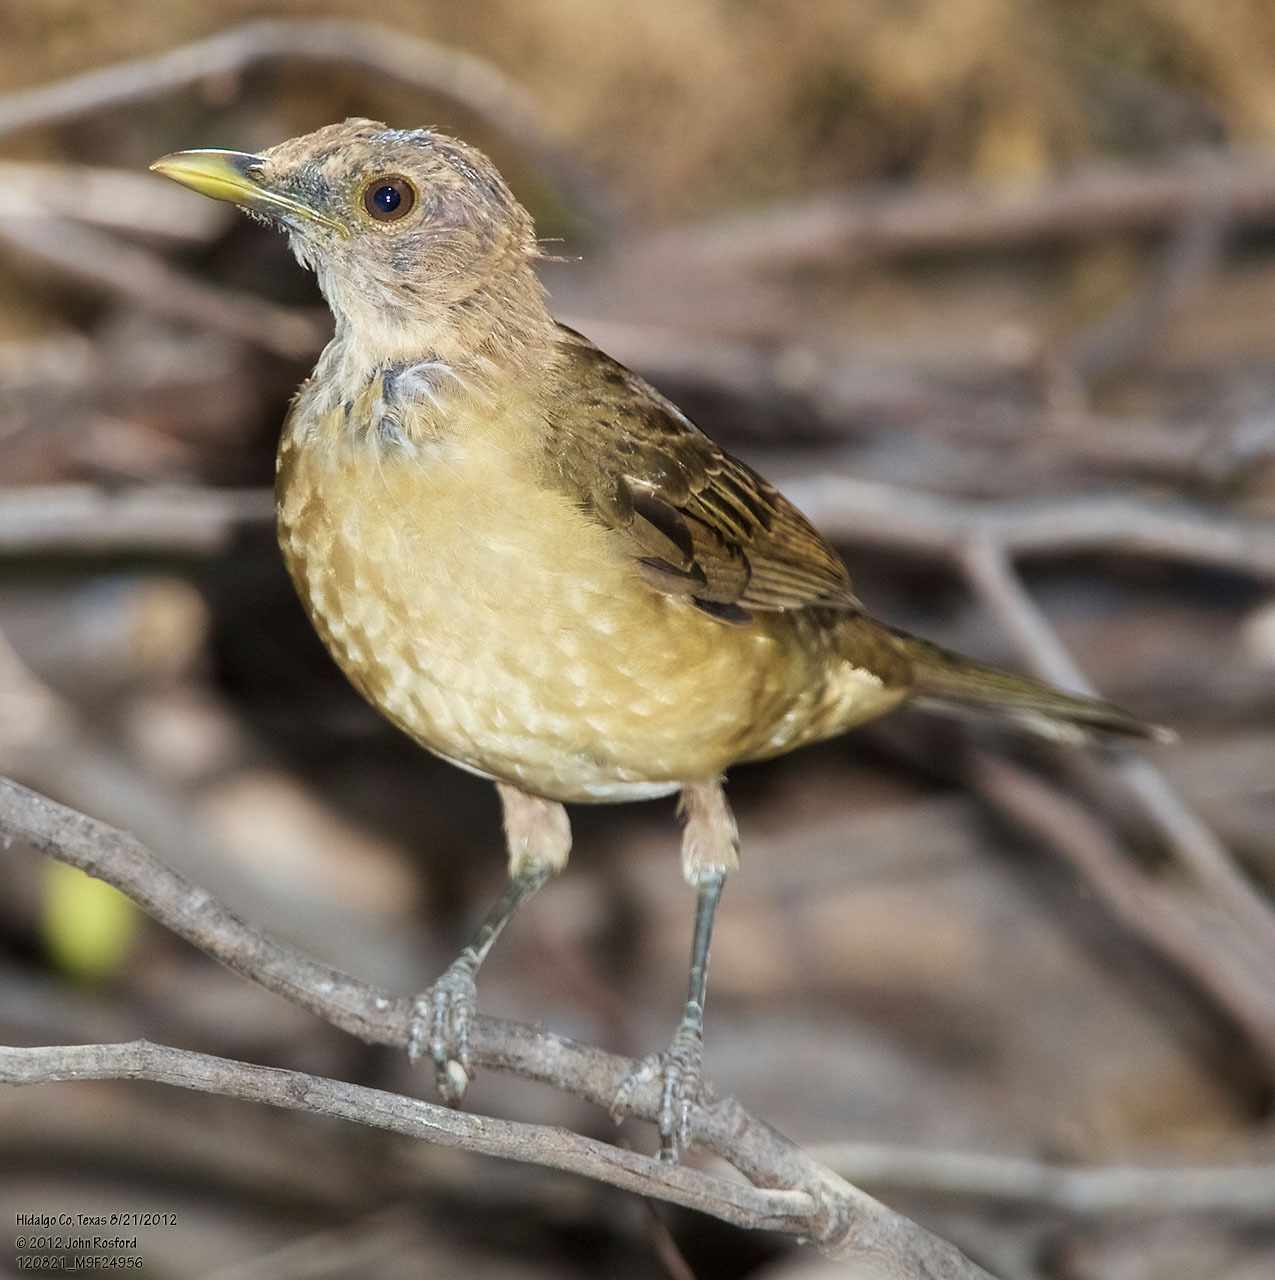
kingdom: Animalia
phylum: Chordata
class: Aves
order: Passeriformes
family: Turdidae
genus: Turdus
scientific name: Turdus grayi
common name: Clay-colored thrush
